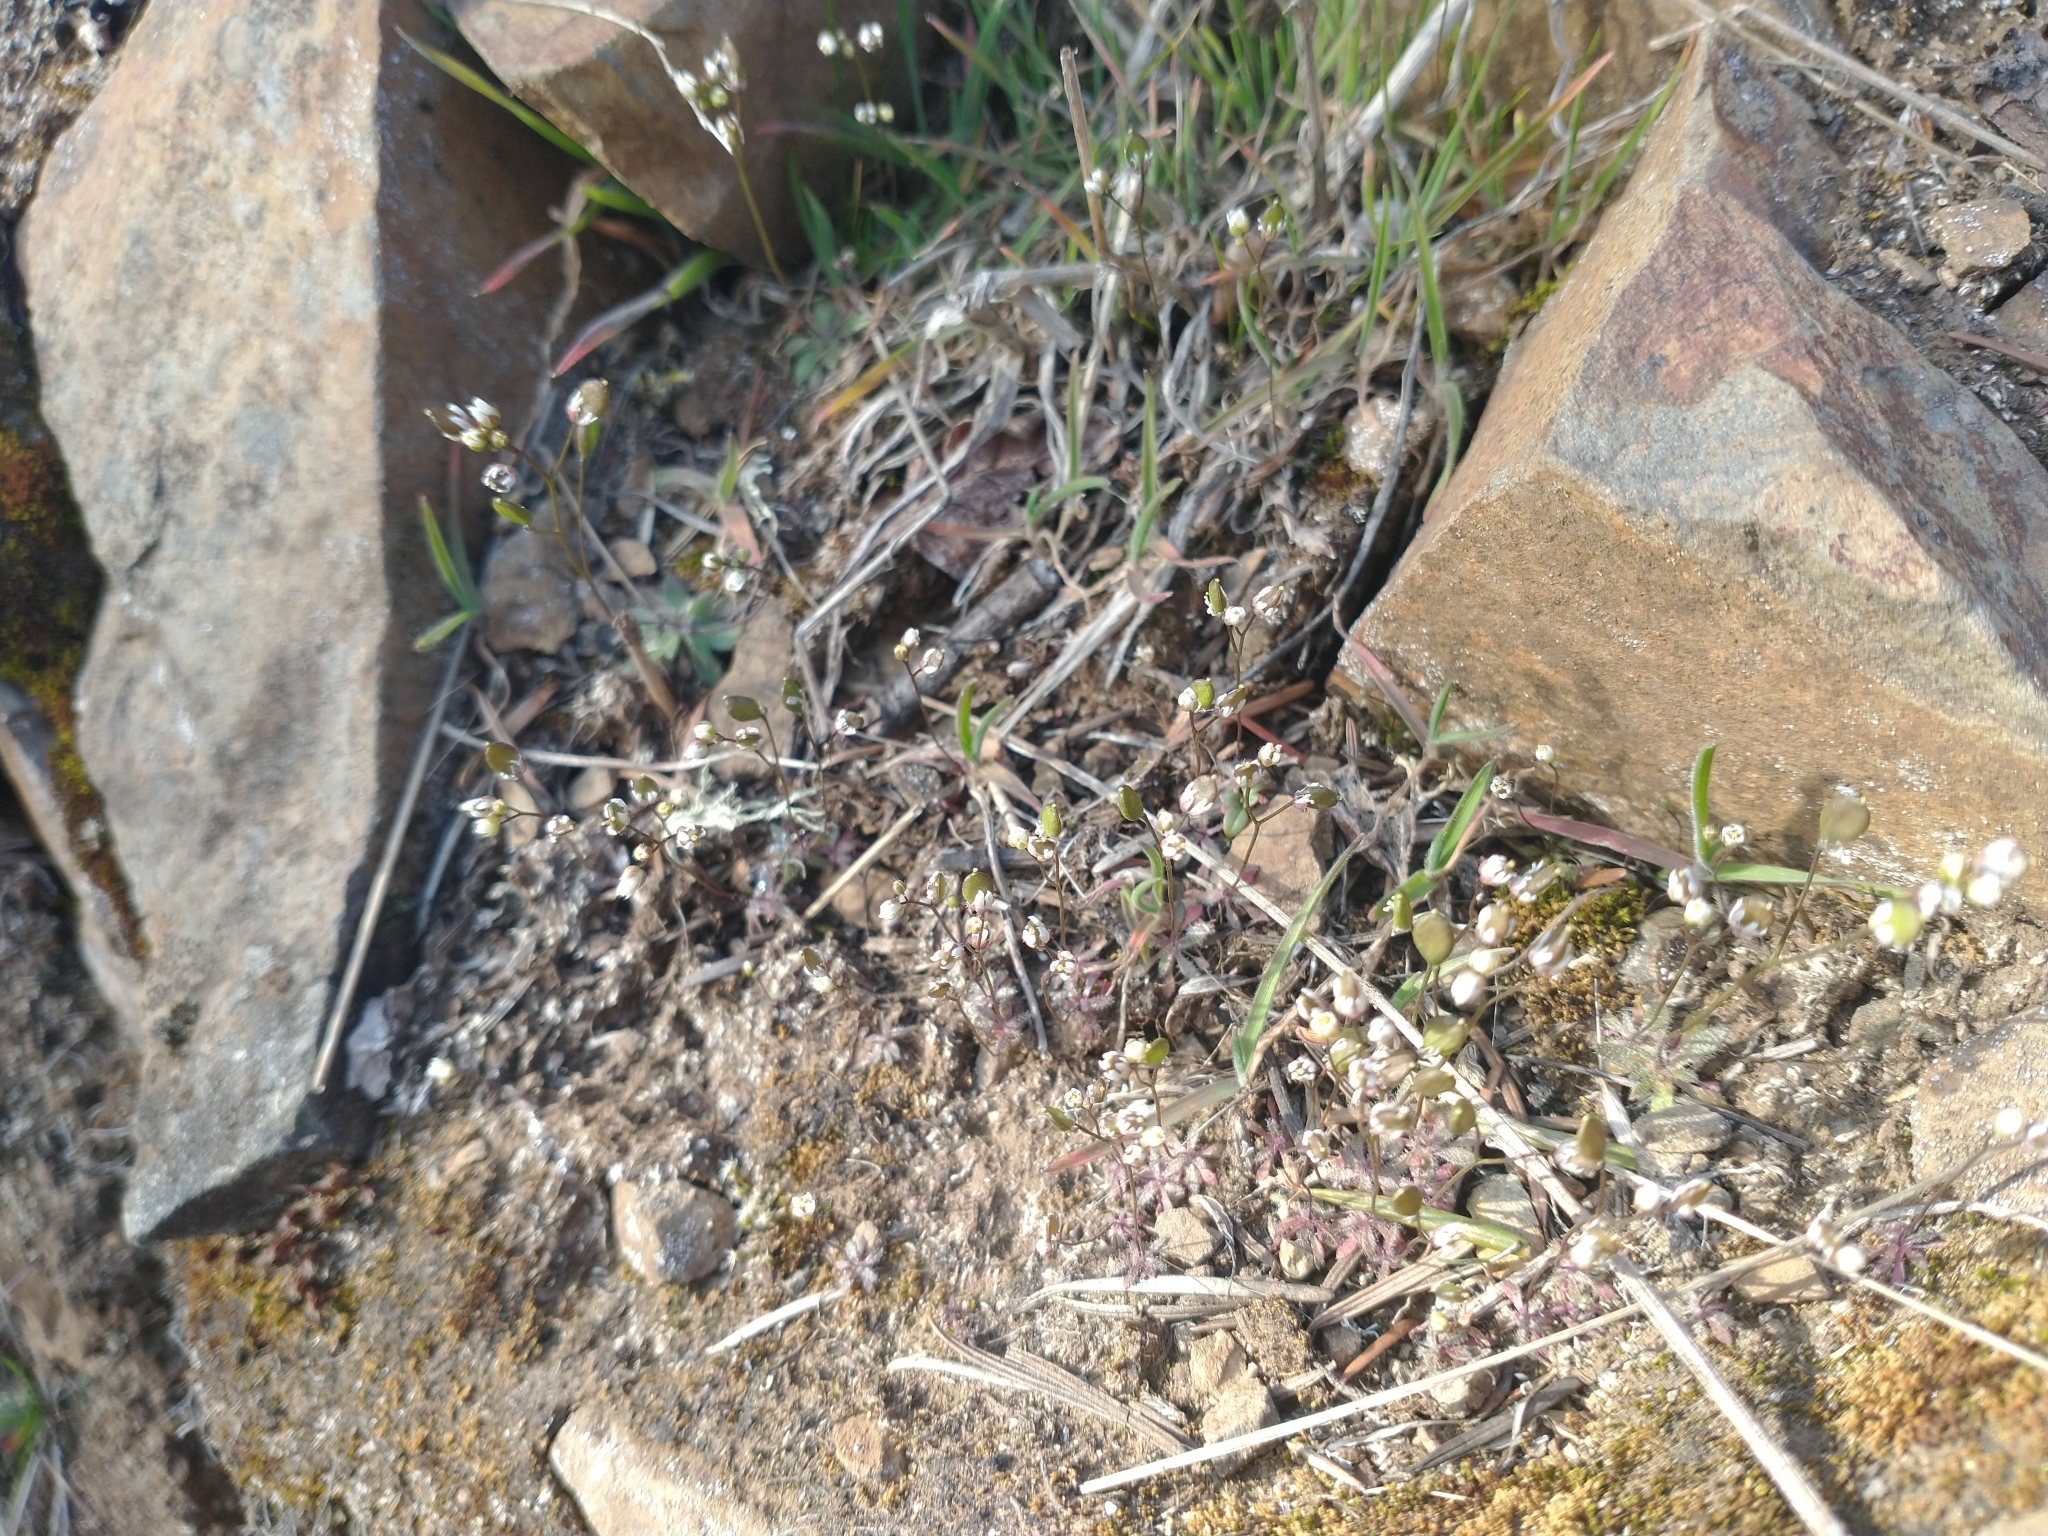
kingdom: Plantae
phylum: Tracheophyta
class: Magnoliopsida
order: Brassicales
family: Brassicaceae
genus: Draba
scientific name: Draba verna
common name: Spring draba
